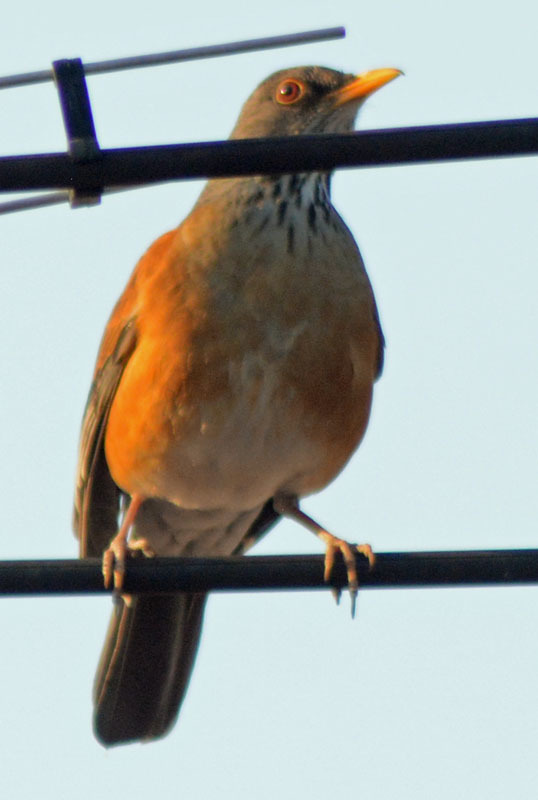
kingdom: Animalia
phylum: Chordata
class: Aves
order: Passeriformes
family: Turdidae
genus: Turdus
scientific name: Turdus rufopalliatus
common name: Rufous-backed robin
